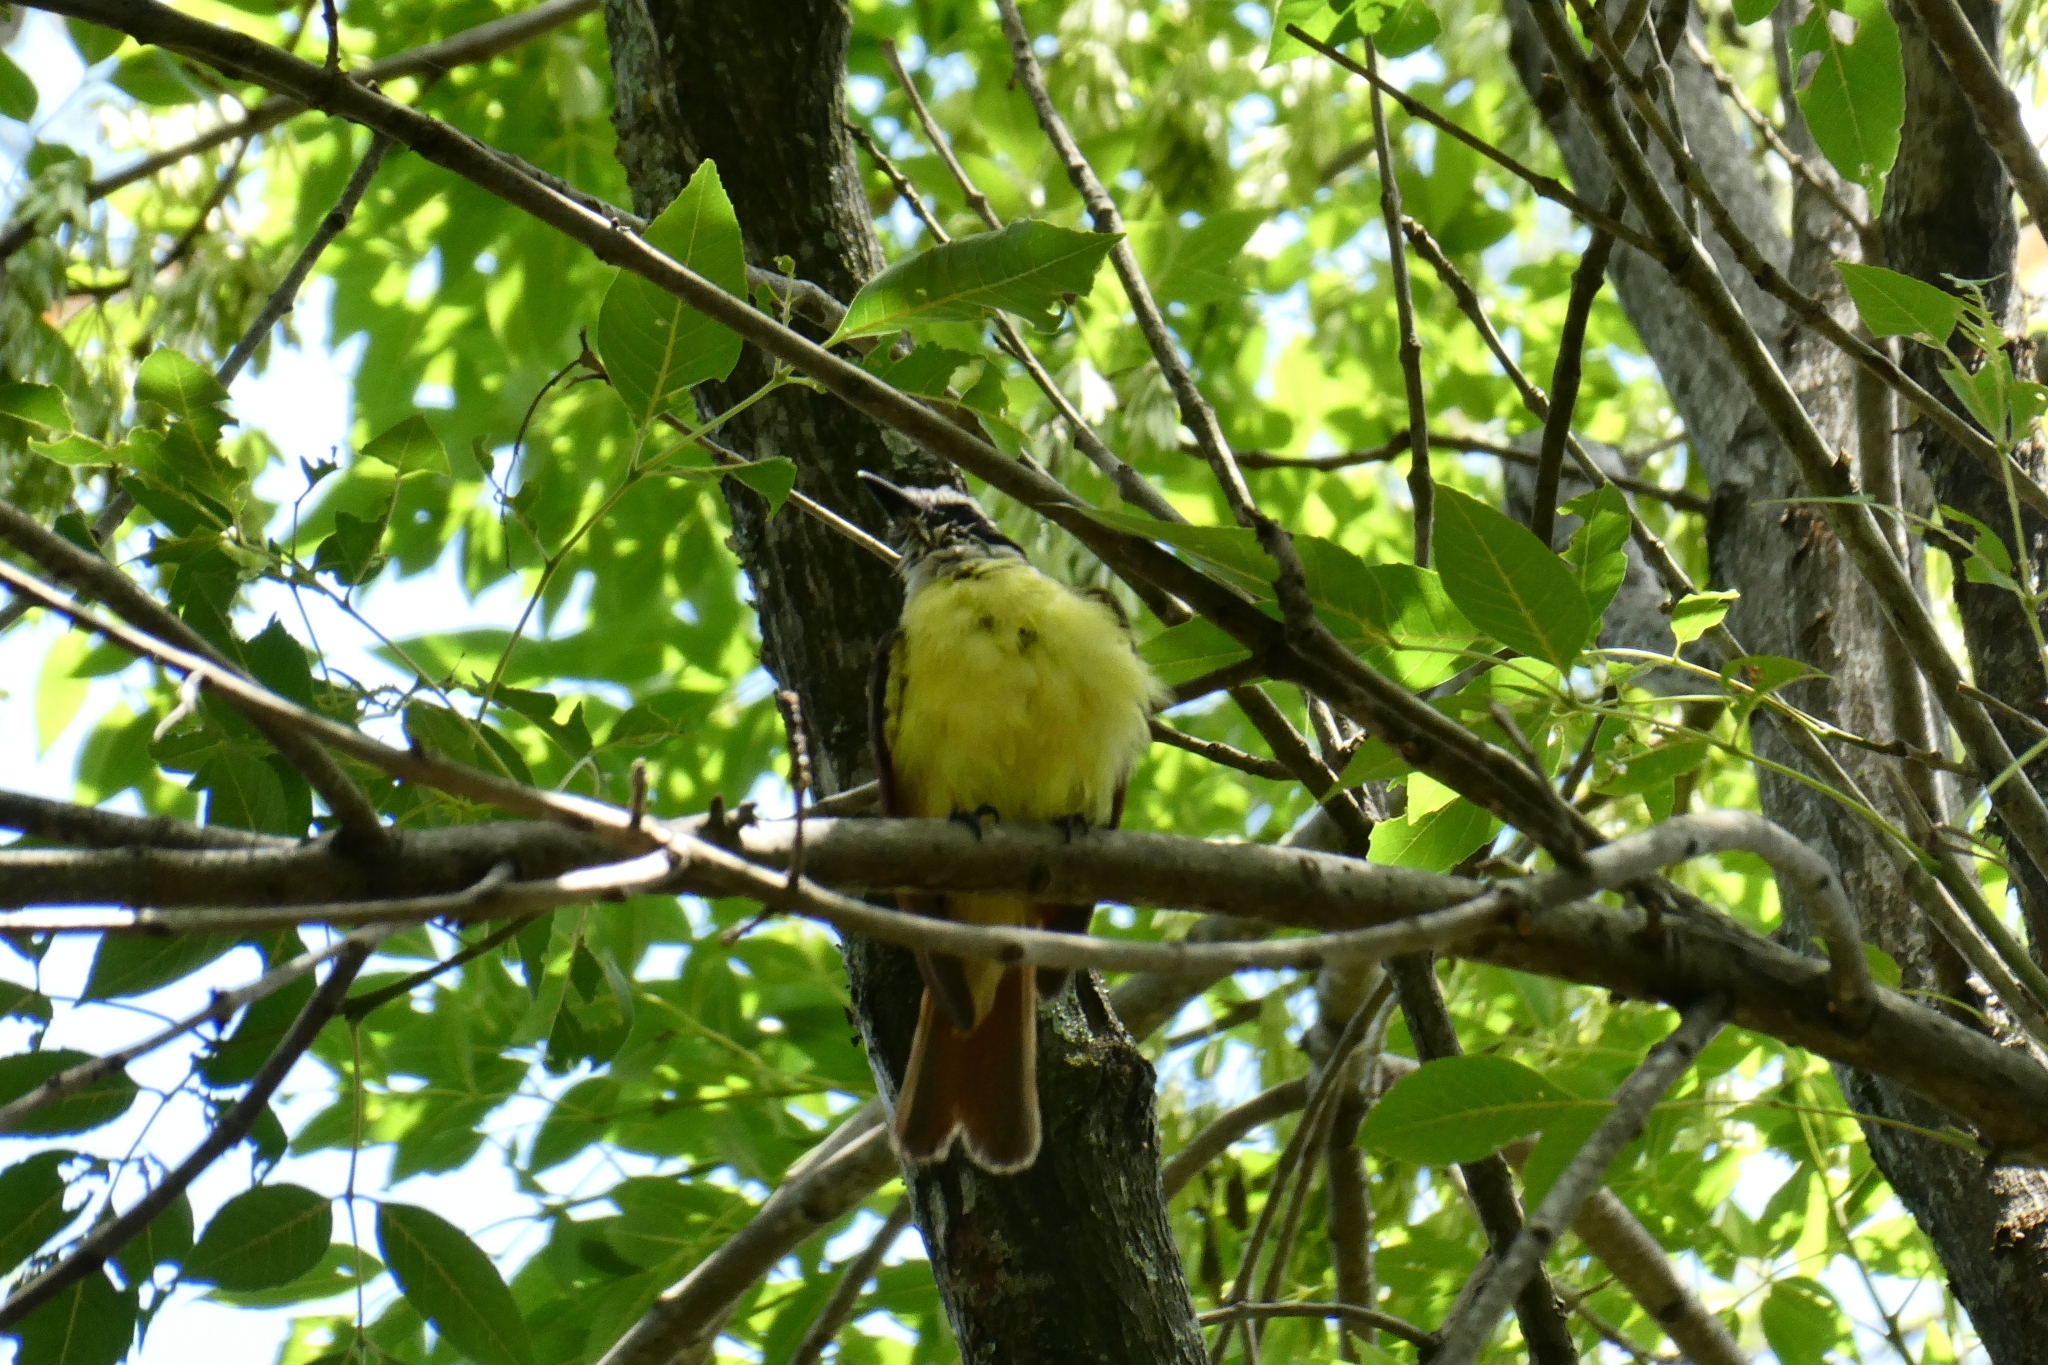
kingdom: Animalia
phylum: Chordata
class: Aves
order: Passeriformes
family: Tyrannidae
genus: Pitangus
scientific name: Pitangus sulphuratus
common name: Great kiskadee
